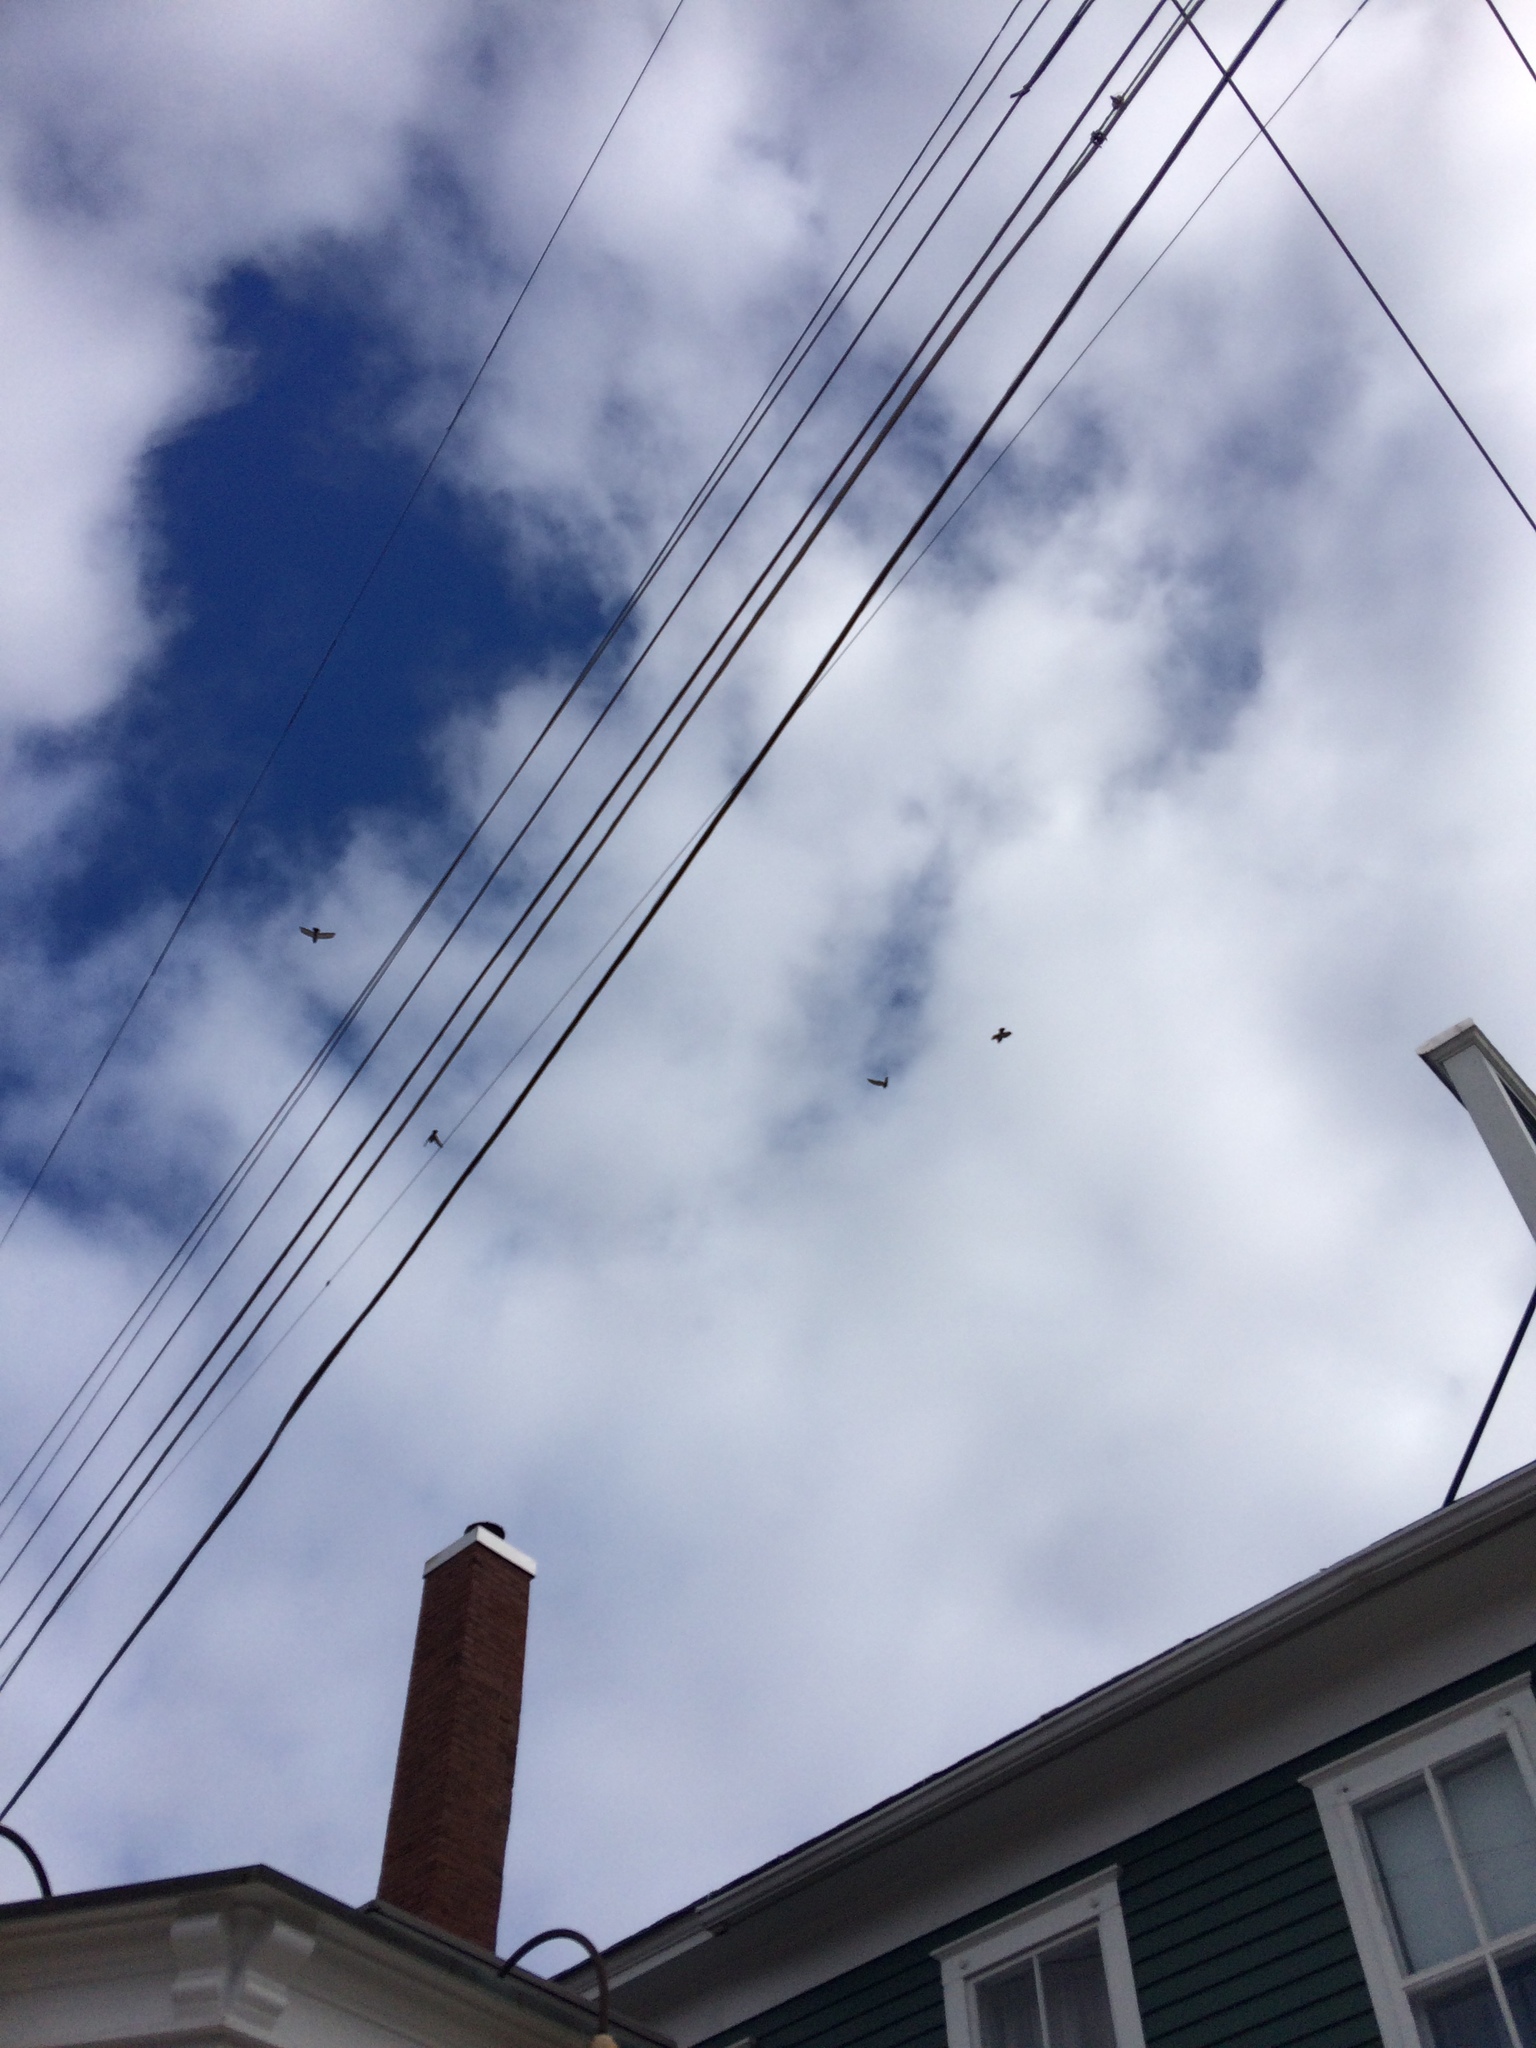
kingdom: Animalia
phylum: Chordata
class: Aves
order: Columbiformes
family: Columbidae
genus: Columba
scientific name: Columba livia
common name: Rock pigeon
